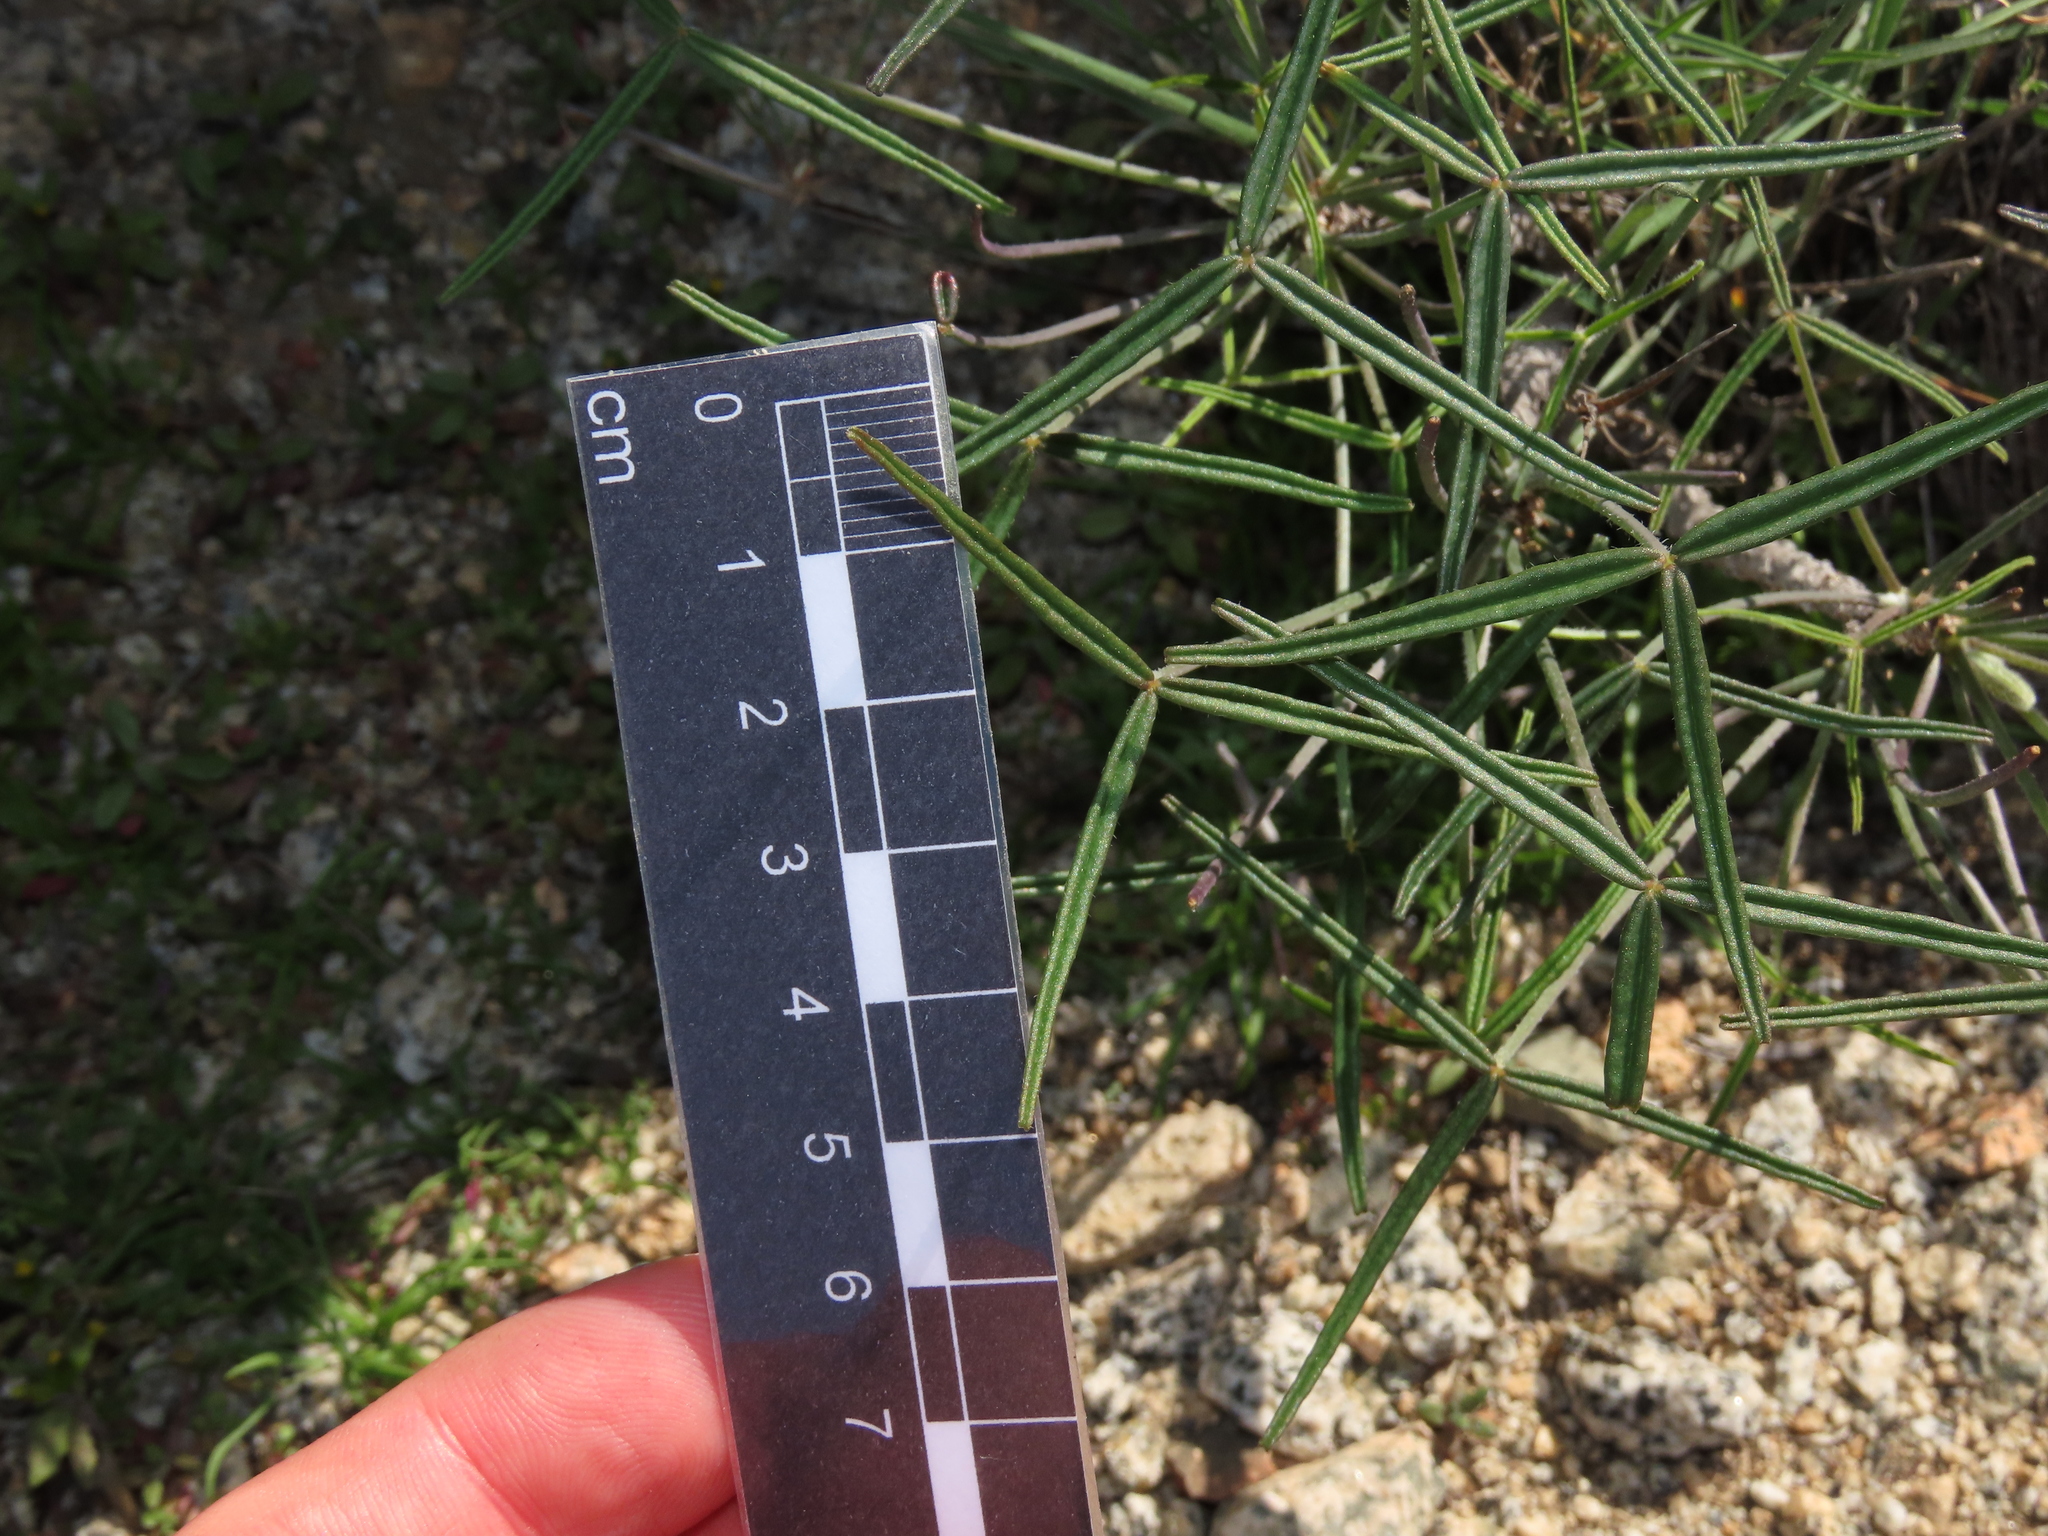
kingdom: Plantae
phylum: Tracheophyta
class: Magnoliopsida
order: Oxalidales
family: Oxalidaceae
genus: Oxalis
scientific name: Oxalis ornithopus
